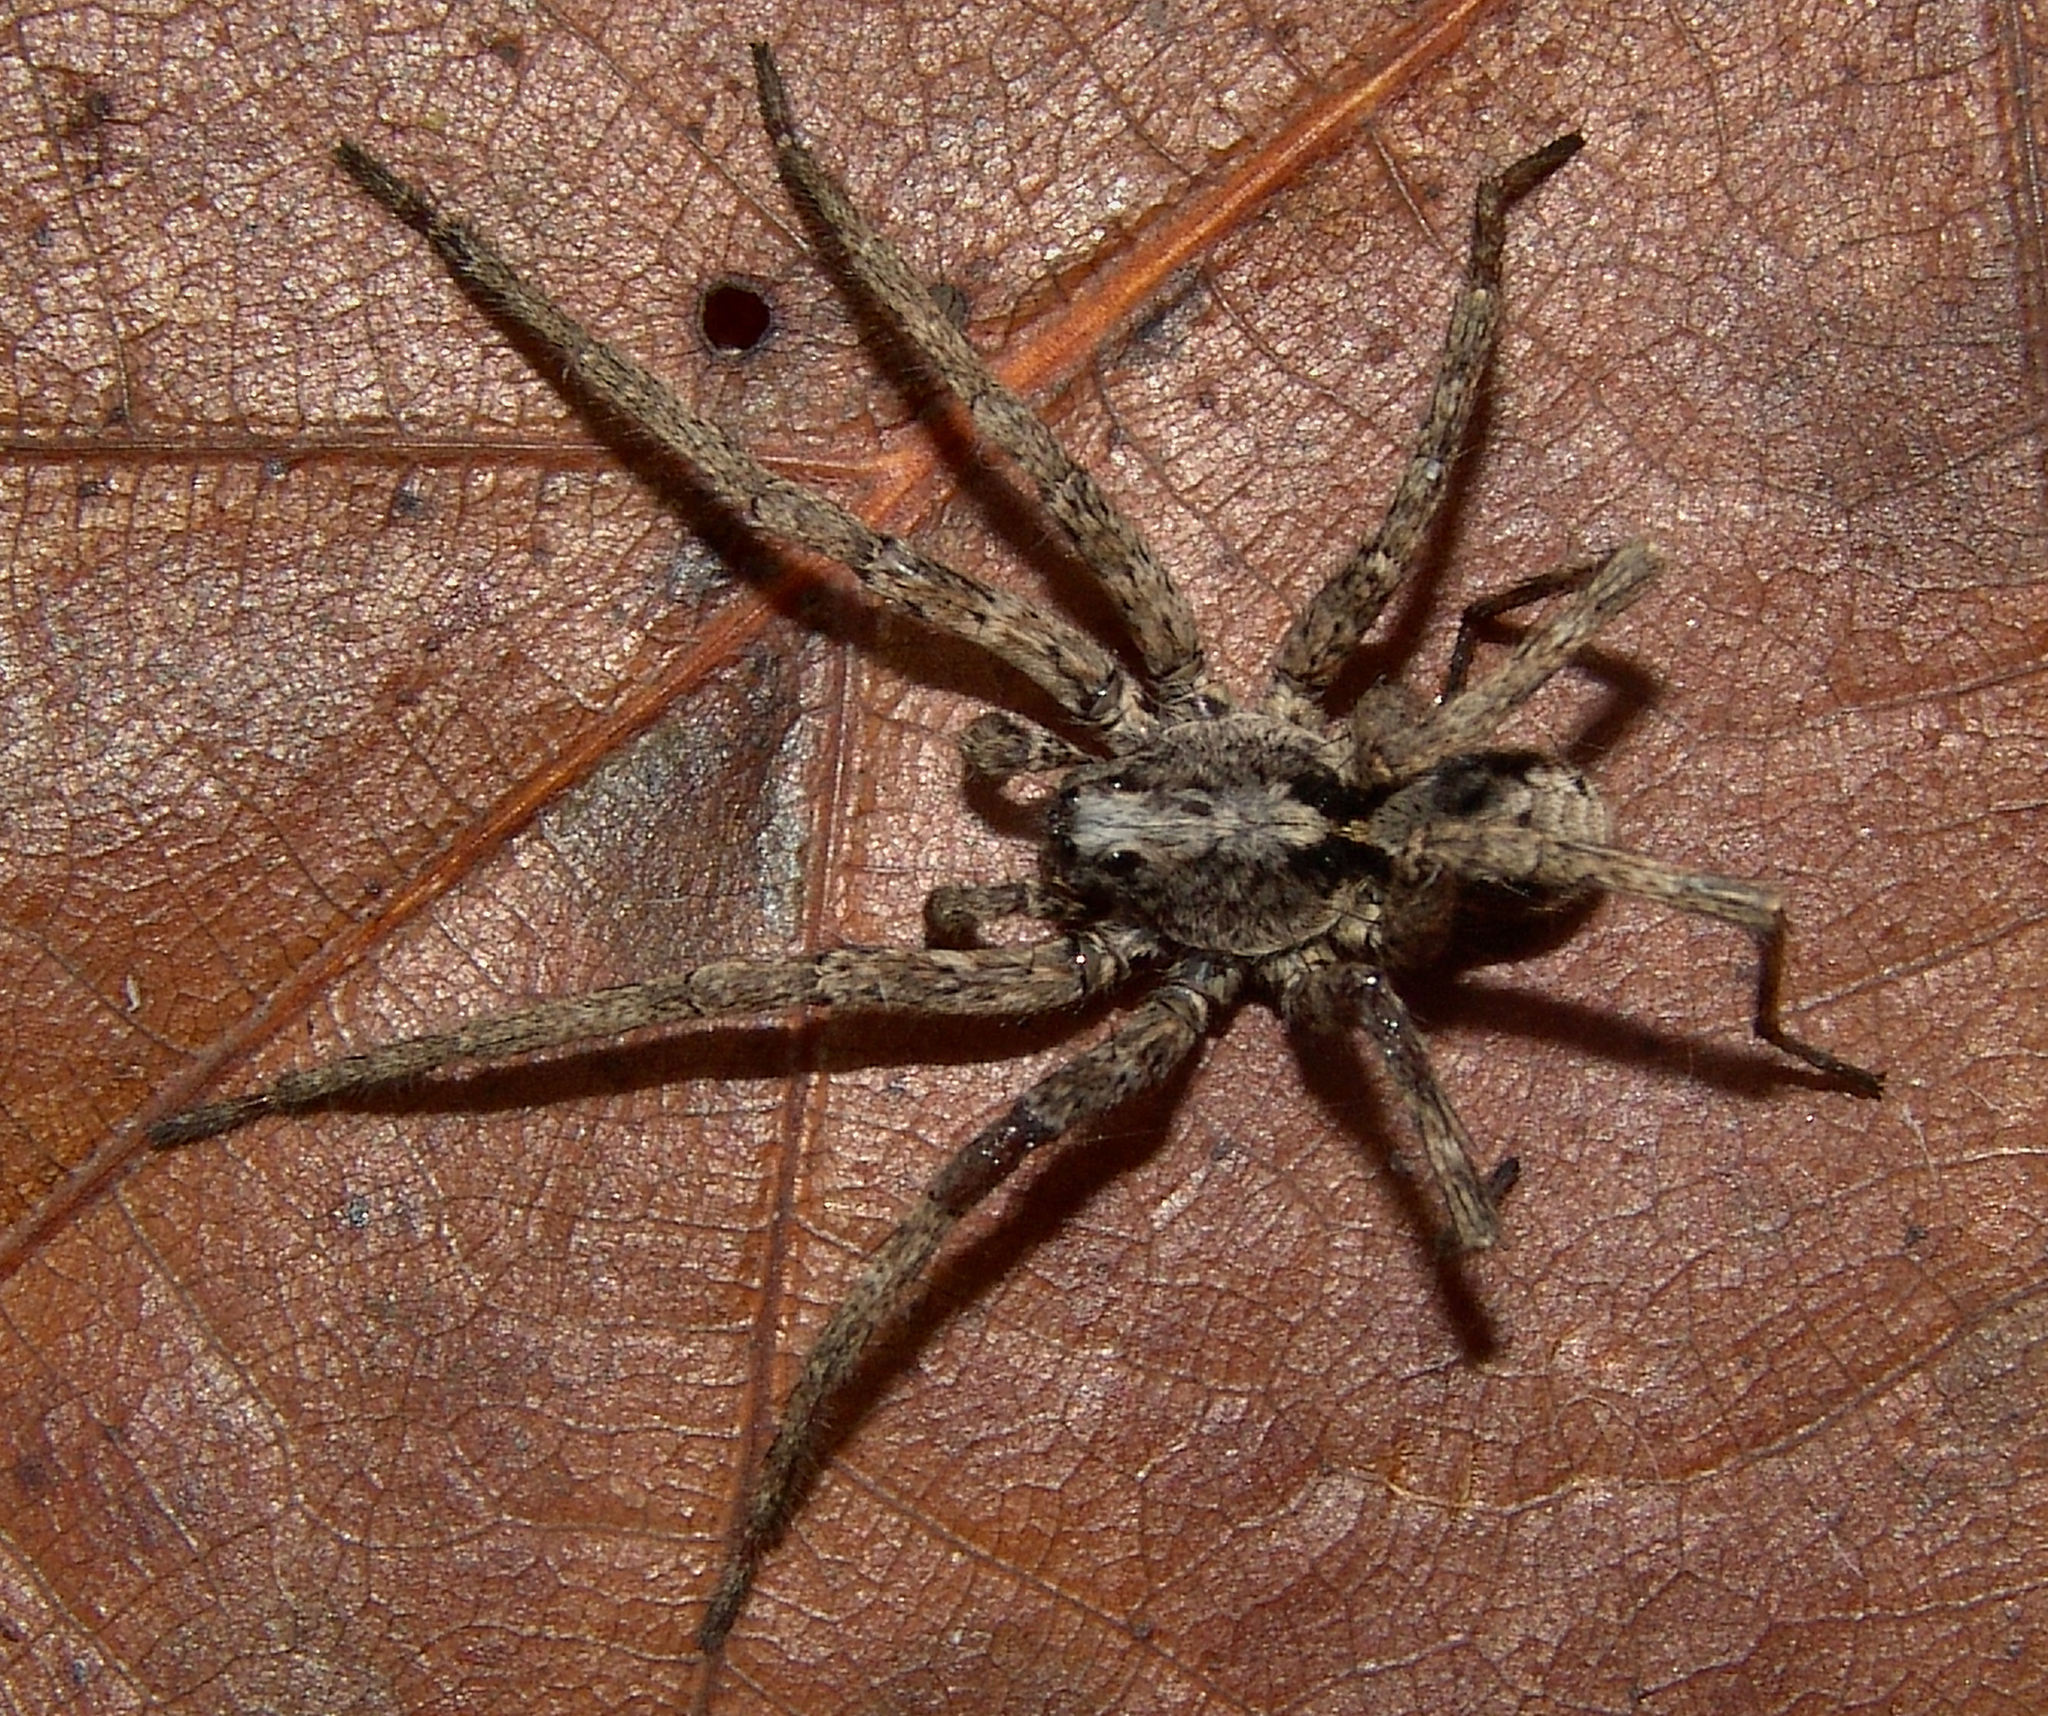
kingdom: Animalia
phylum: Arthropoda
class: Arachnida
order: Araneae
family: Lycosidae
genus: Gladicosa
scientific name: Gladicosa pulchra
